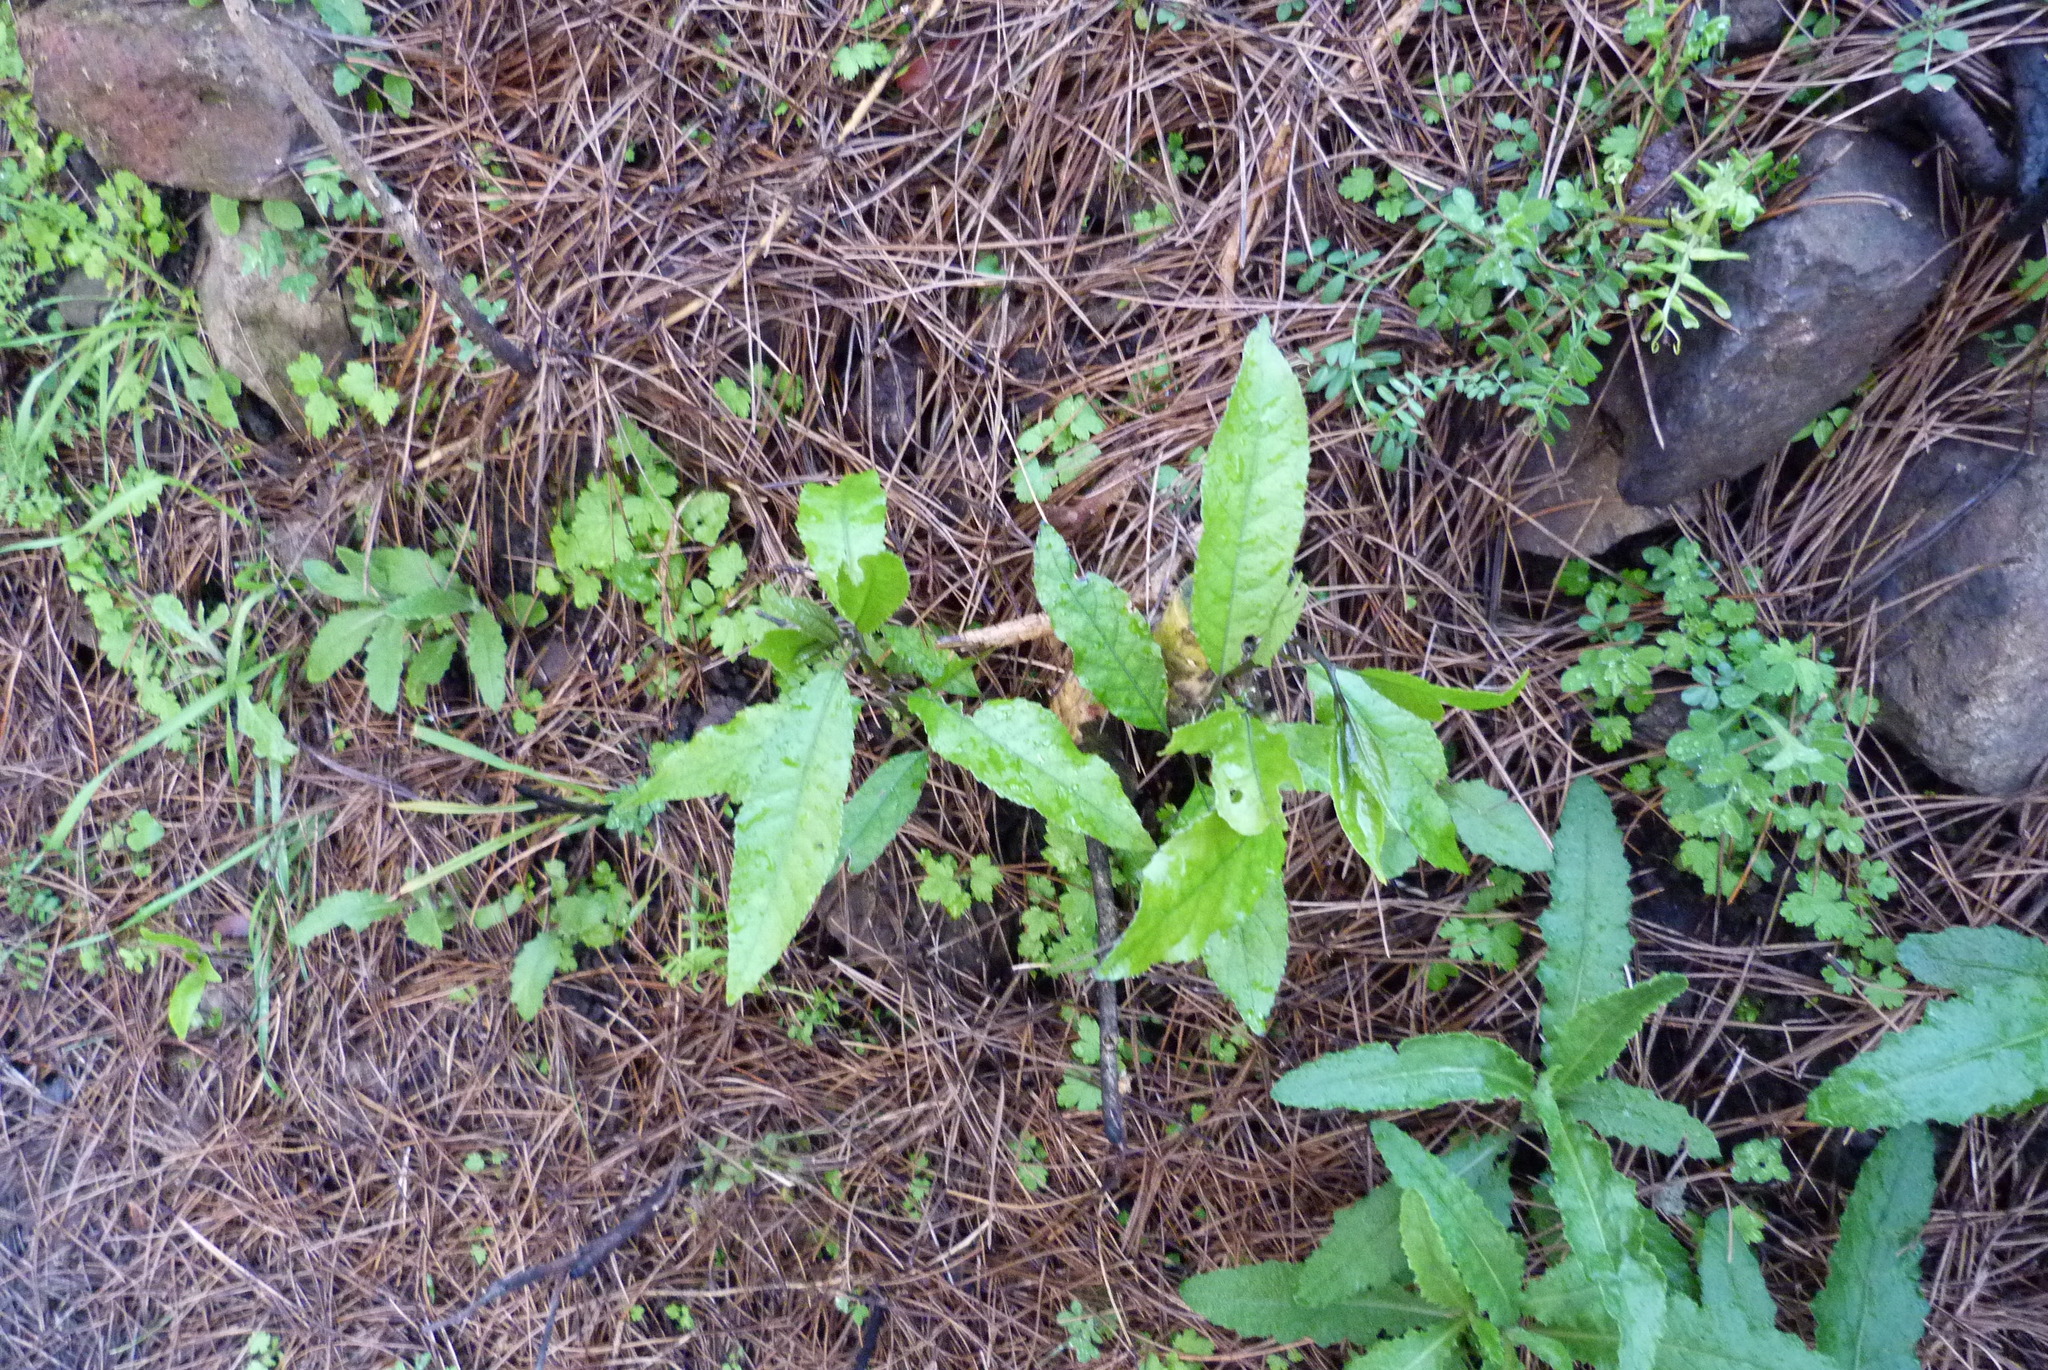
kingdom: Plantae
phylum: Tracheophyta
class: Magnoliopsida
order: Malpighiales
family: Violaceae
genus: Melicytus
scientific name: Melicytus ramiflorus
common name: Mahoe
